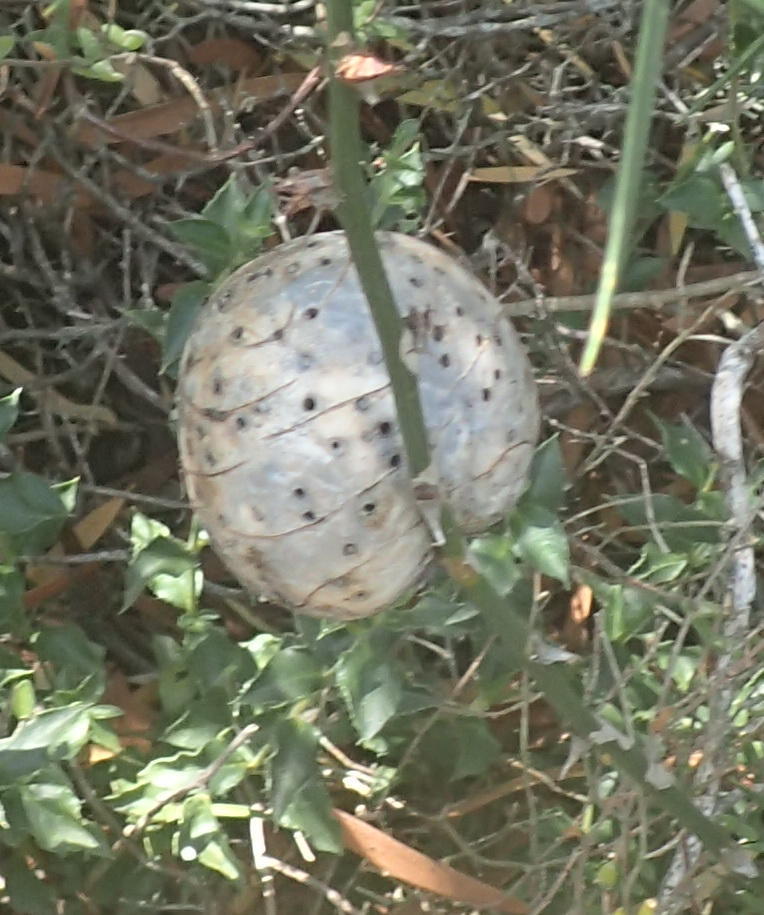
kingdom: Animalia
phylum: Arthropoda
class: Insecta
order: Hymenoptera
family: Pteromalidae
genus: Asparagobius
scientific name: Asparagobius braunsi
